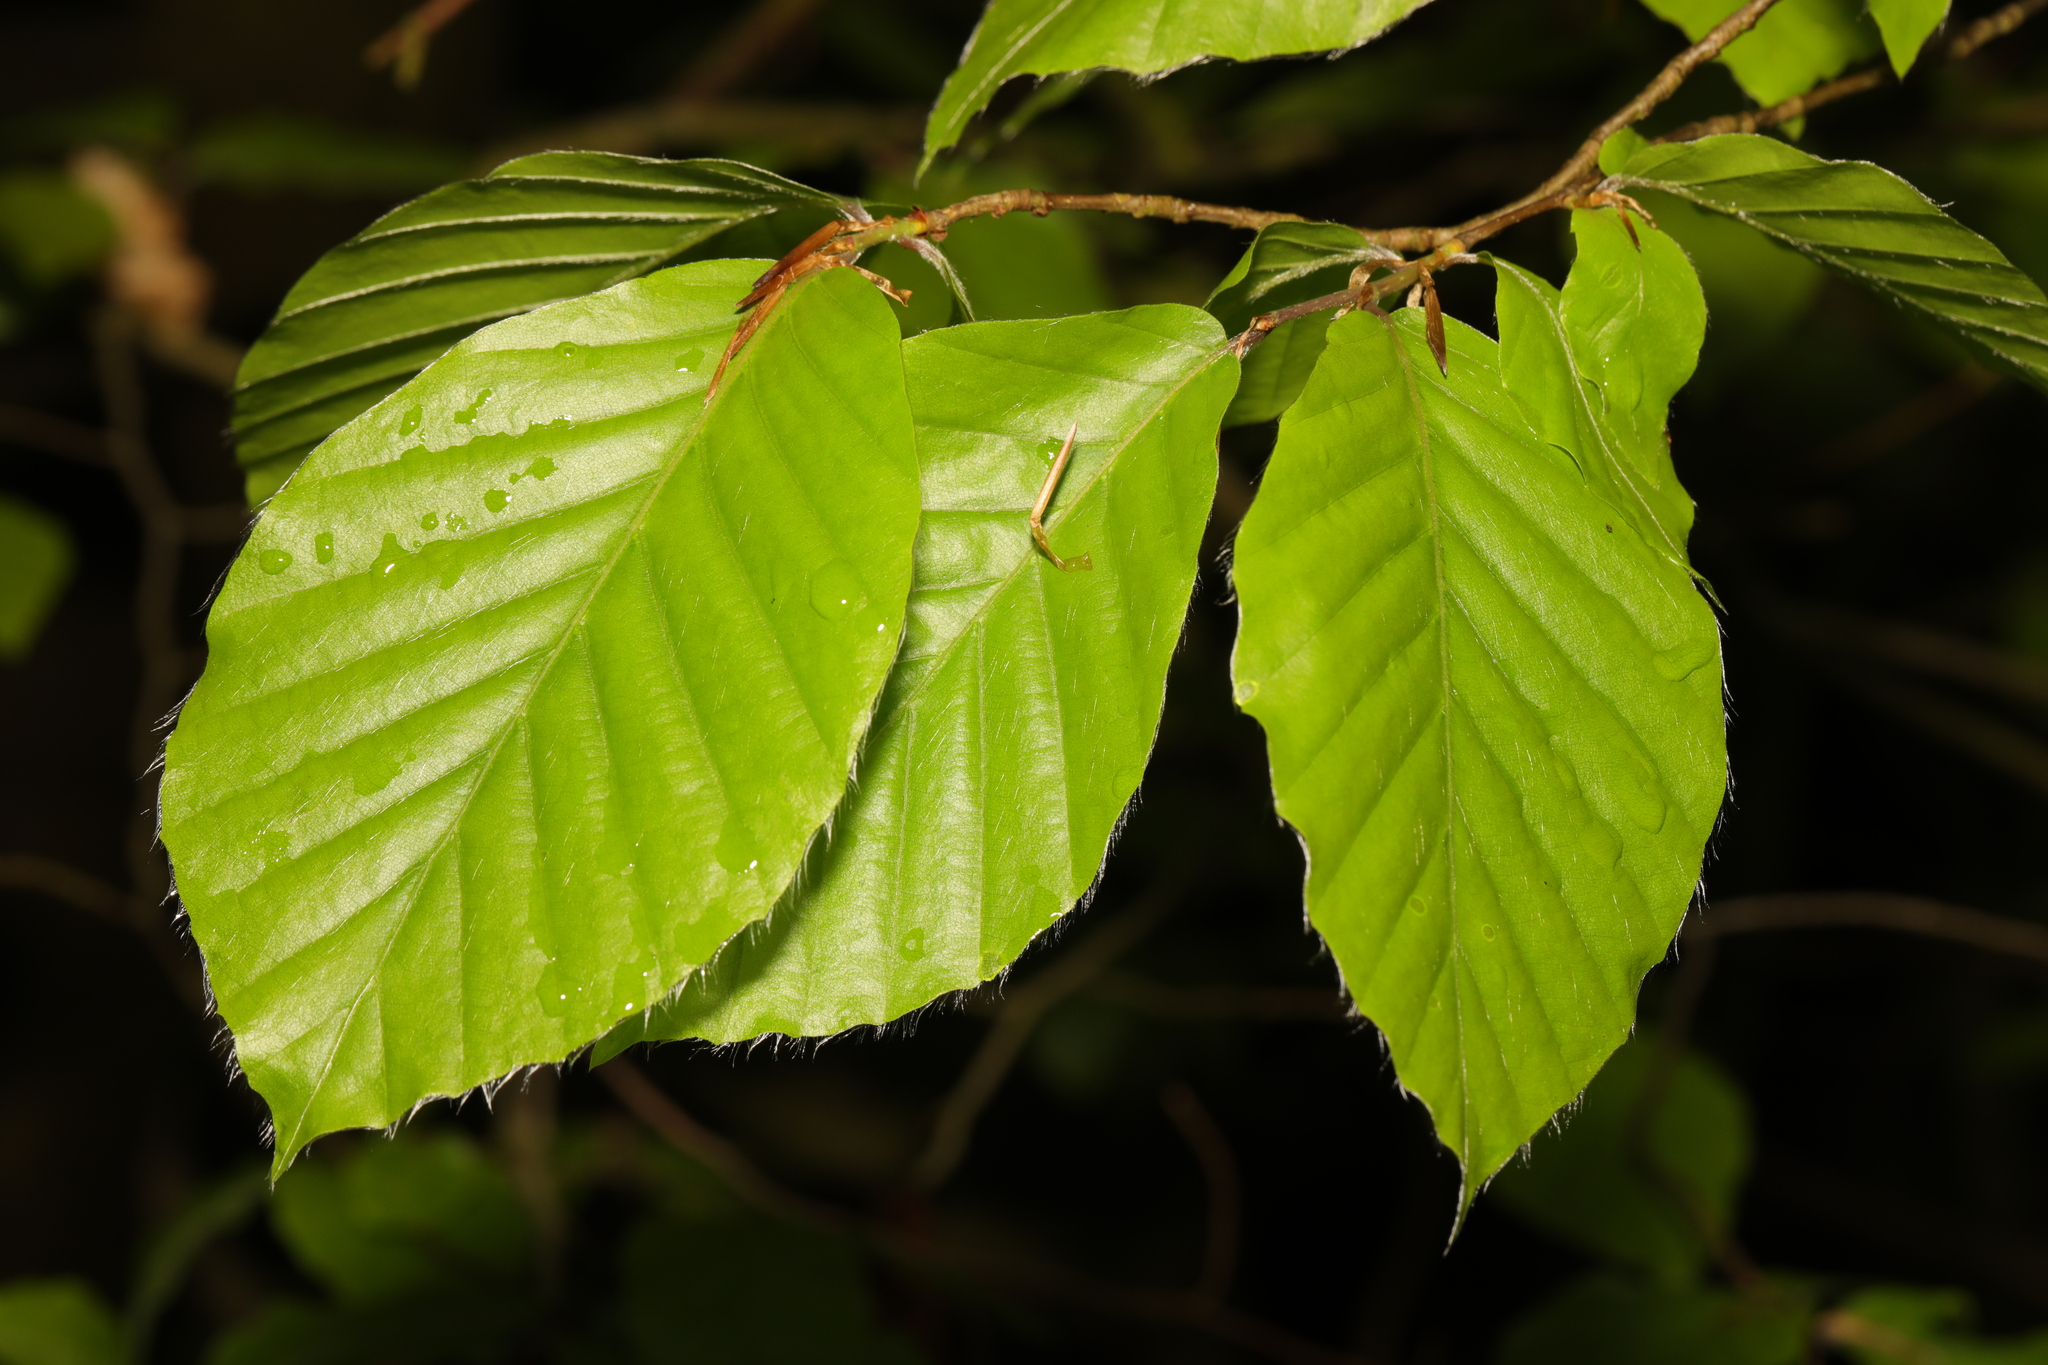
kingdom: Plantae
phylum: Tracheophyta
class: Magnoliopsida
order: Fagales
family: Fagaceae
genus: Fagus
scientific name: Fagus sylvatica
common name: Beech
